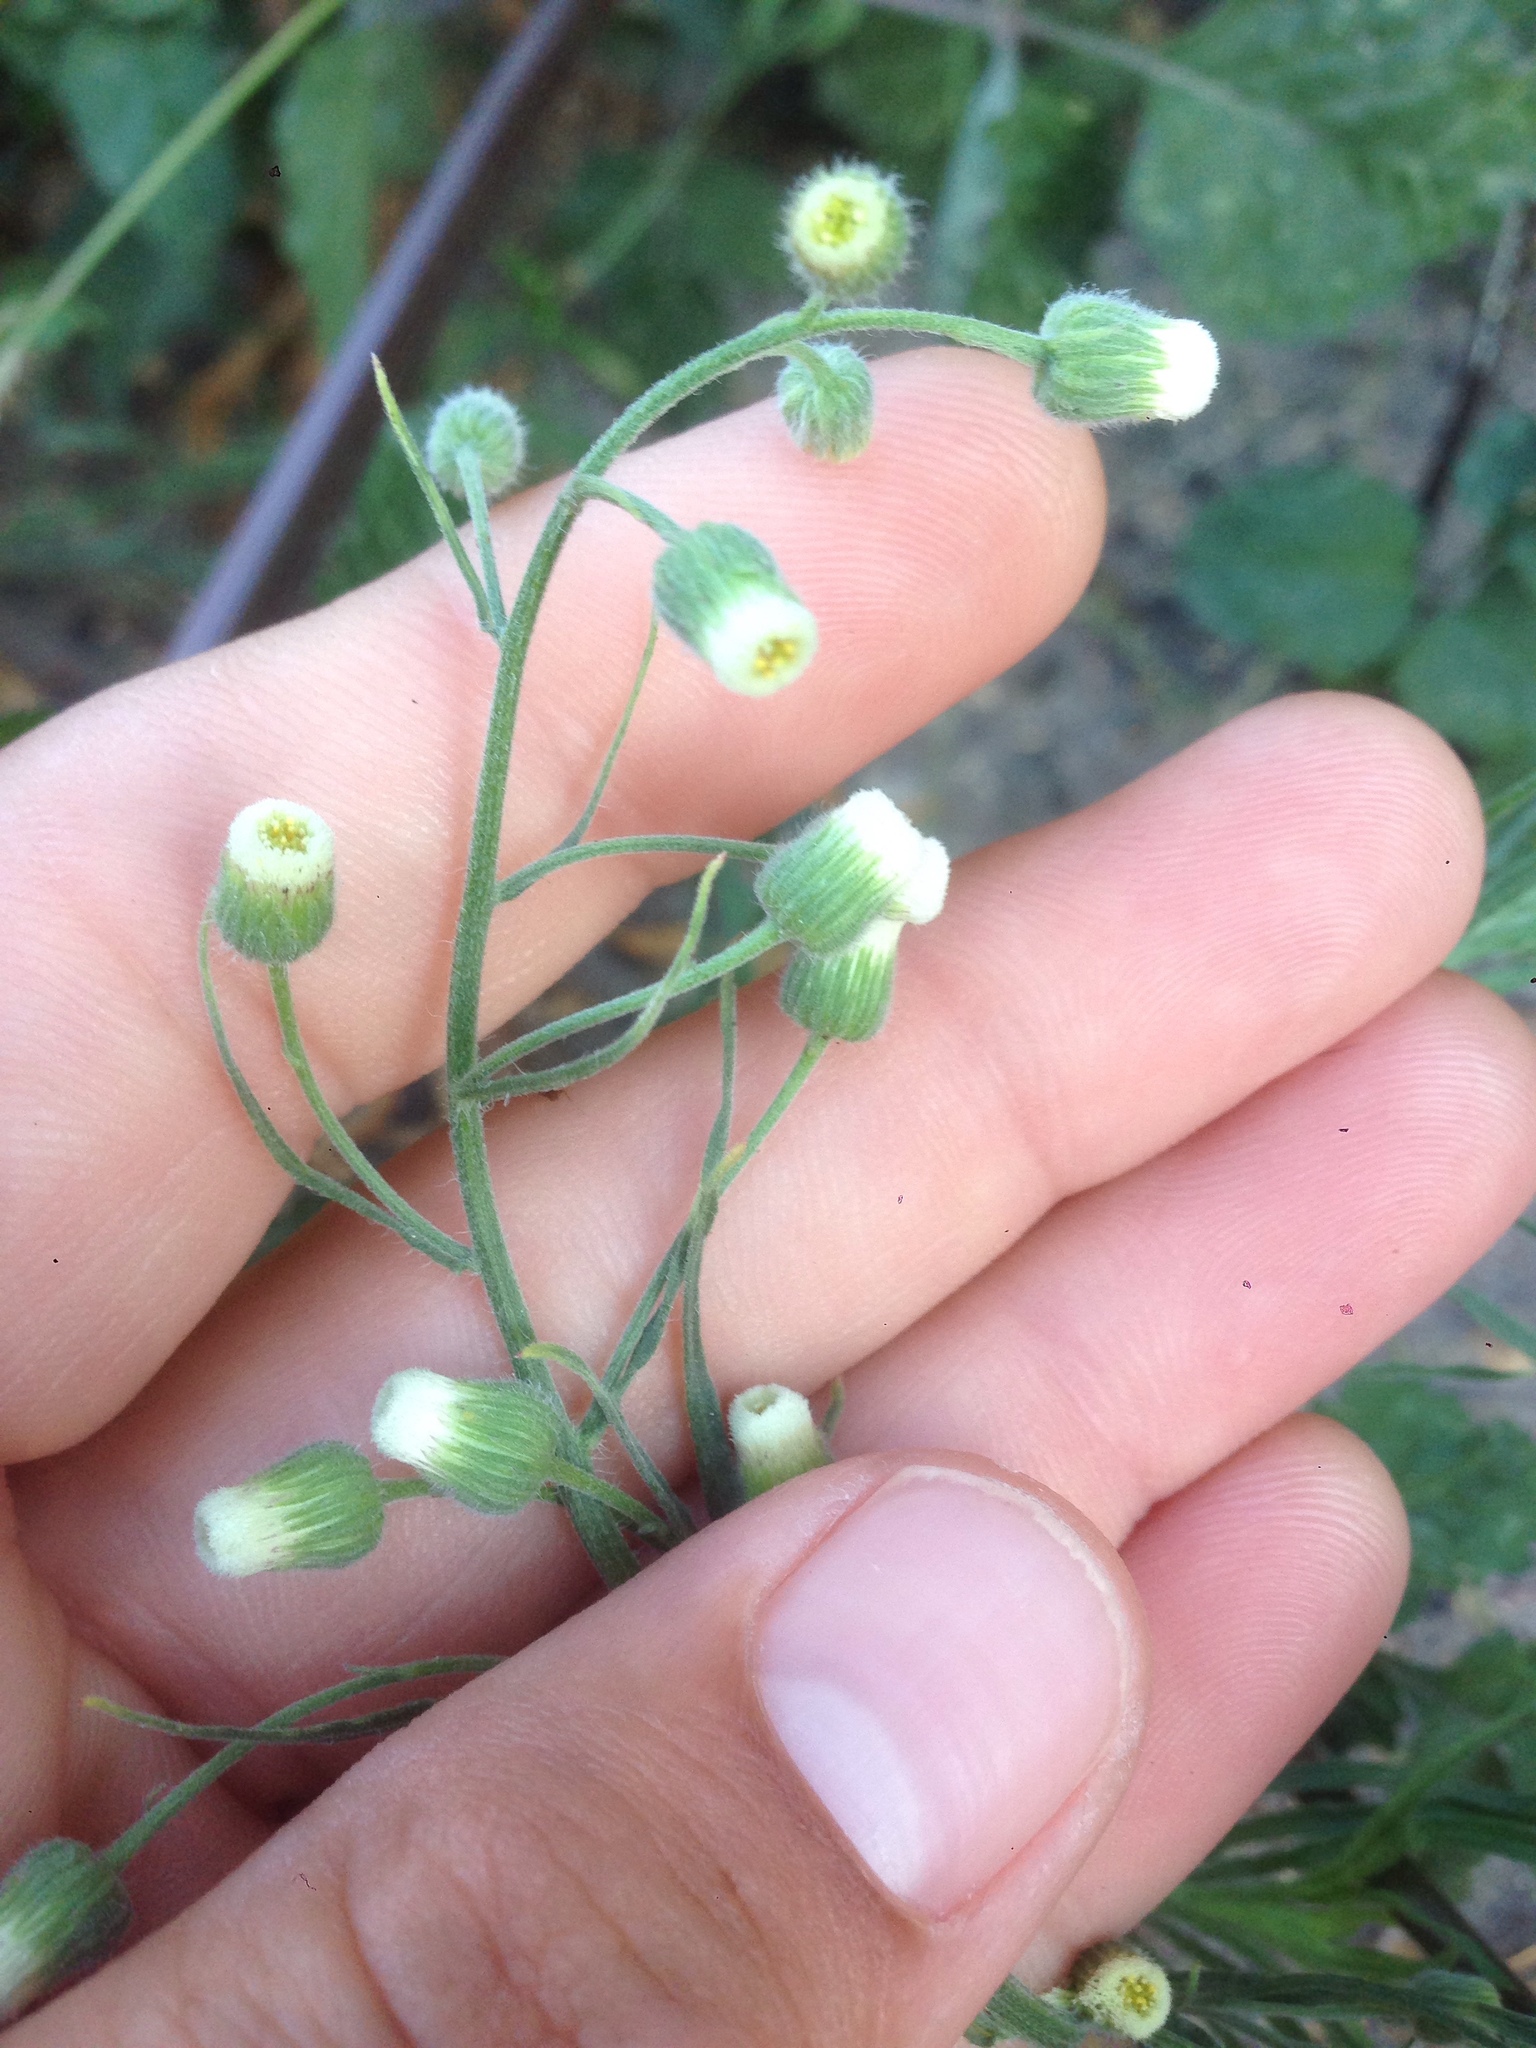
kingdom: Plantae
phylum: Tracheophyta
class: Magnoliopsida
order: Asterales
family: Asteraceae
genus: Erigeron
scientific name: Erigeron bonariensis
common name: Argentine fleabane
